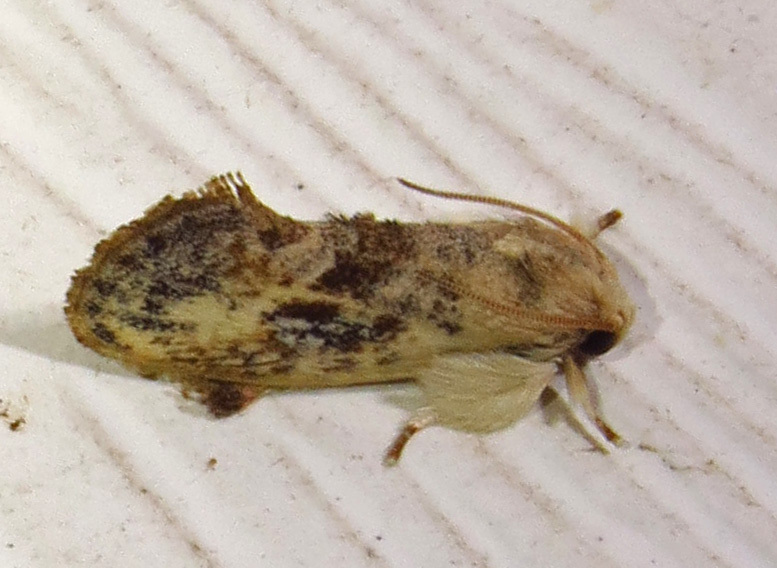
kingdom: Animalia
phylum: Arthropoda
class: Insecta
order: Lepidoptera
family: Tineidae
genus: Acrolophus
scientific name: Acrolophus mycetophagus
